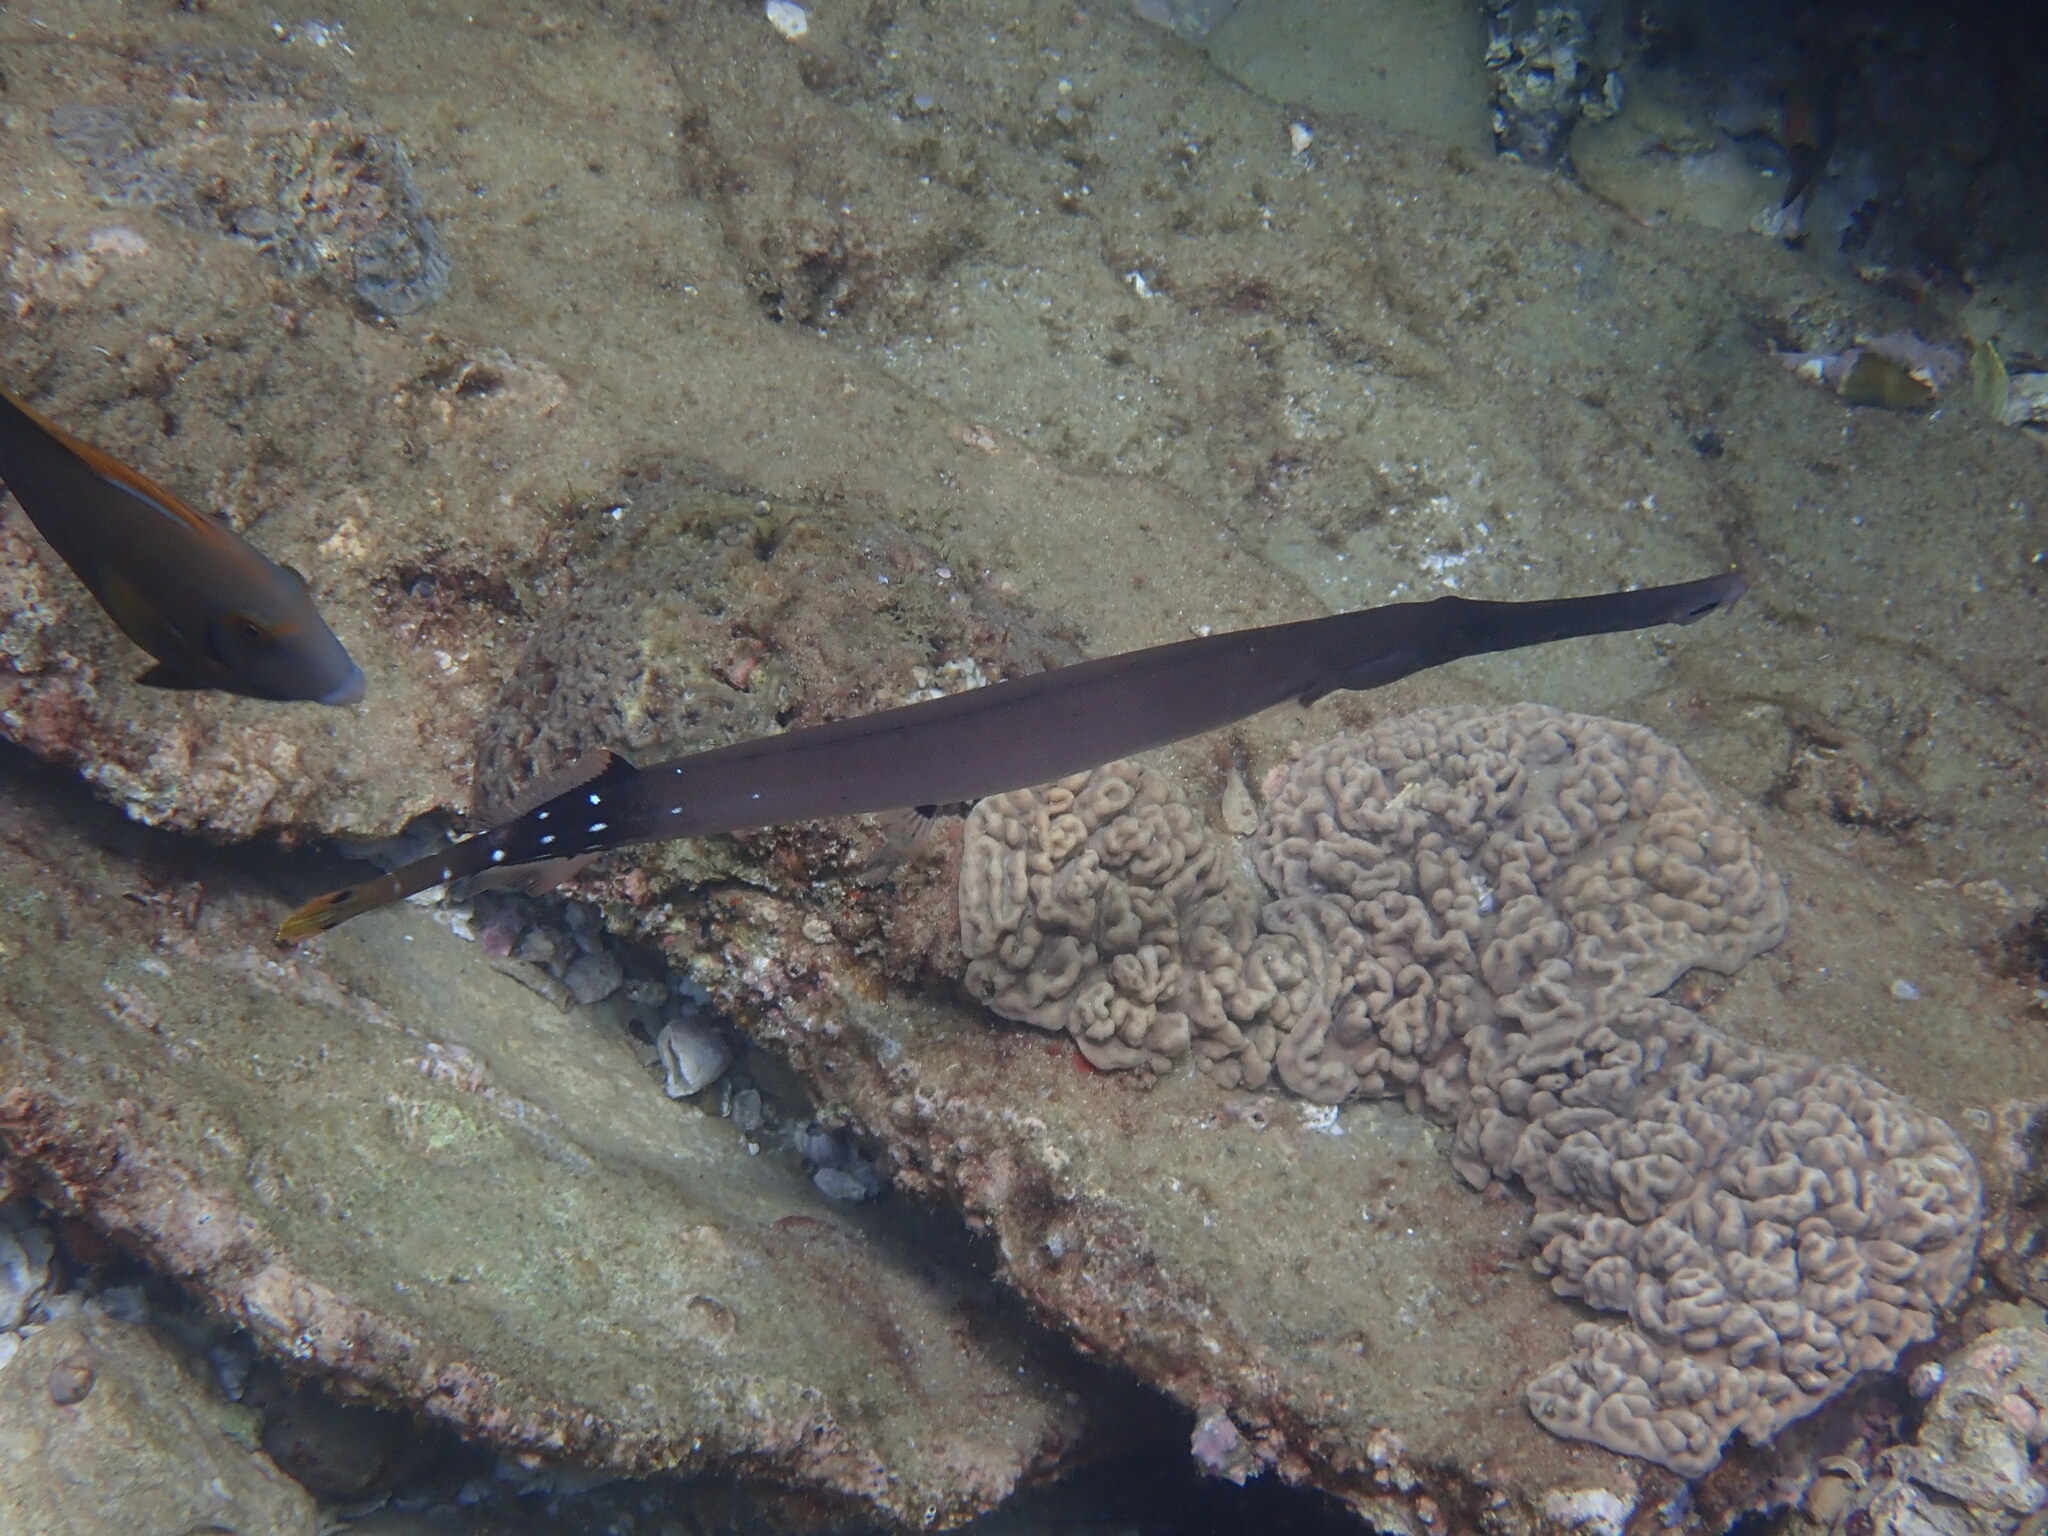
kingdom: Animalia
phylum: Chordata
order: Syngnathiformes
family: Aulostomidae
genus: Aulostomus
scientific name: Aulostomus chinensis
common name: Chinese trumpetfish
